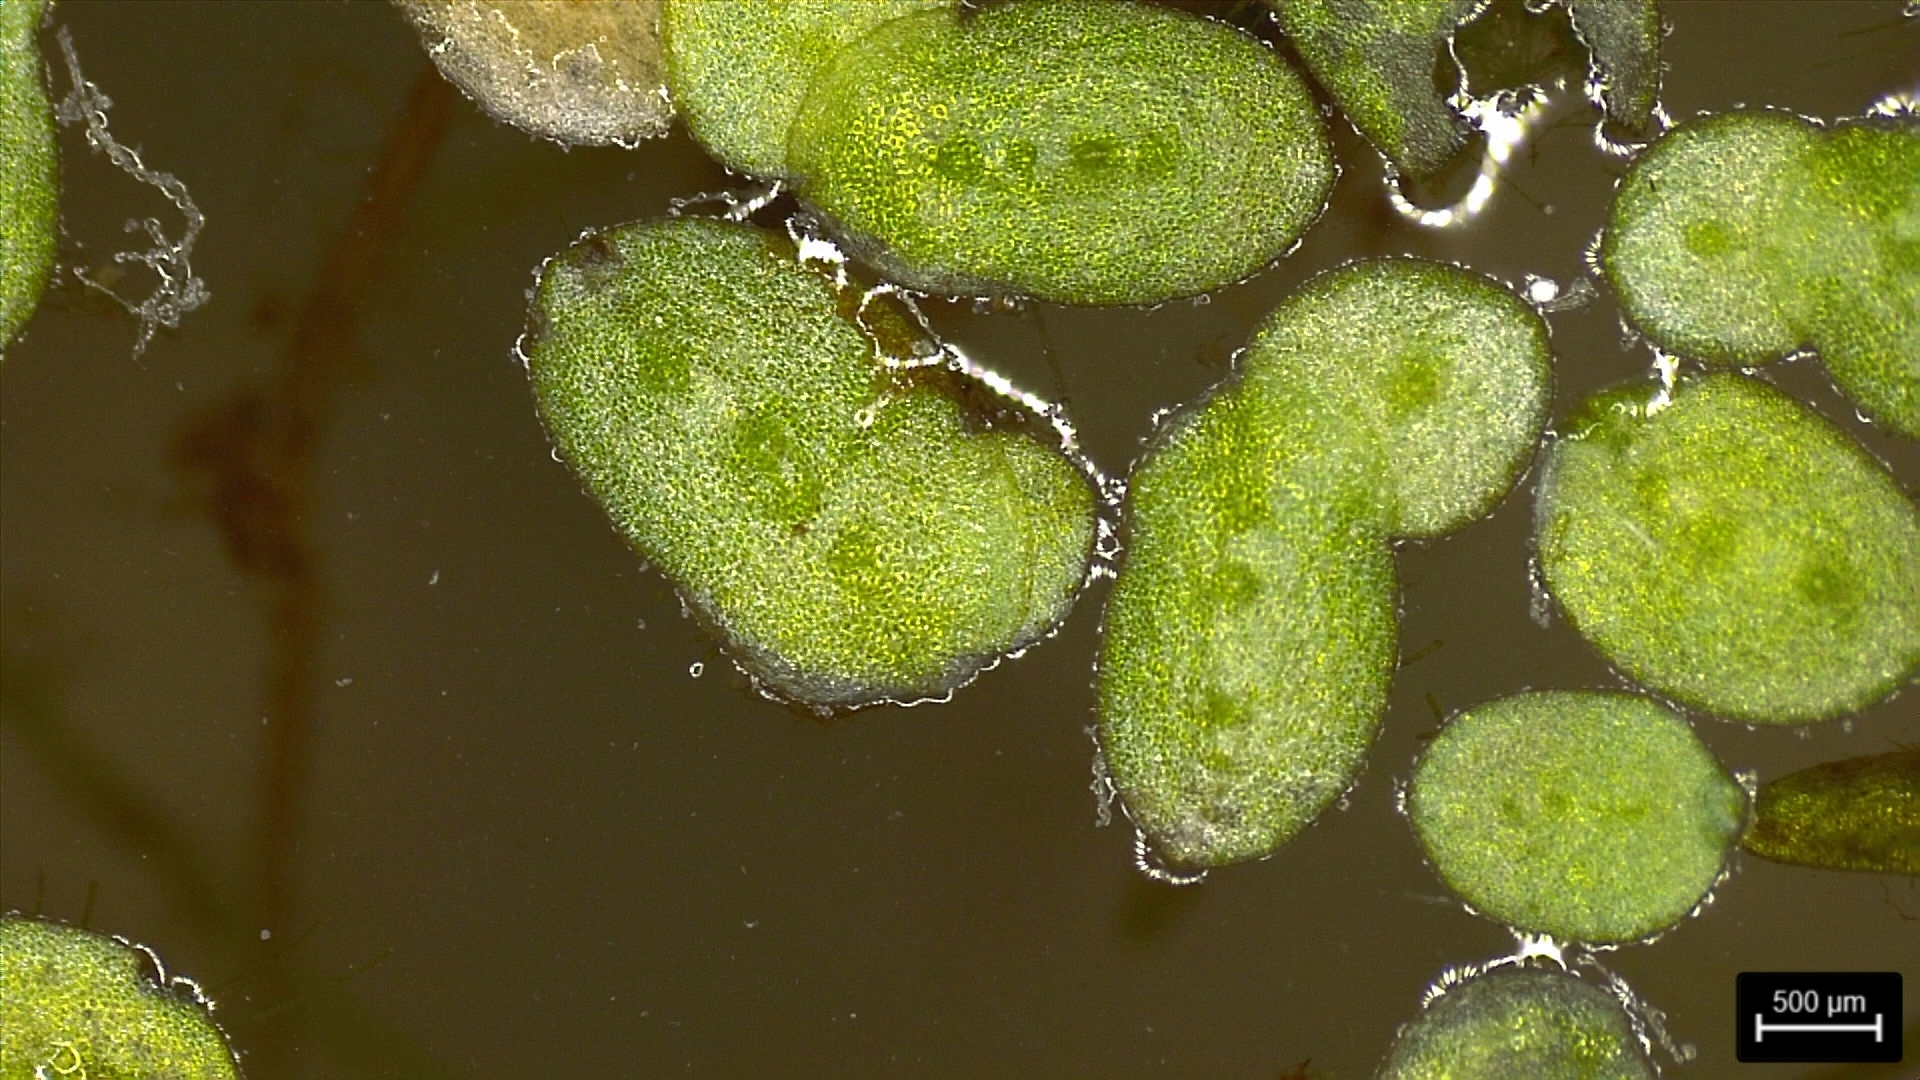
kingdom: Plantae
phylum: Tracheophyta
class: Liliopsida
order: Alismatales
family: Araceae
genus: Lemna
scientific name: Lemna minuta
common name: Least duckweed
